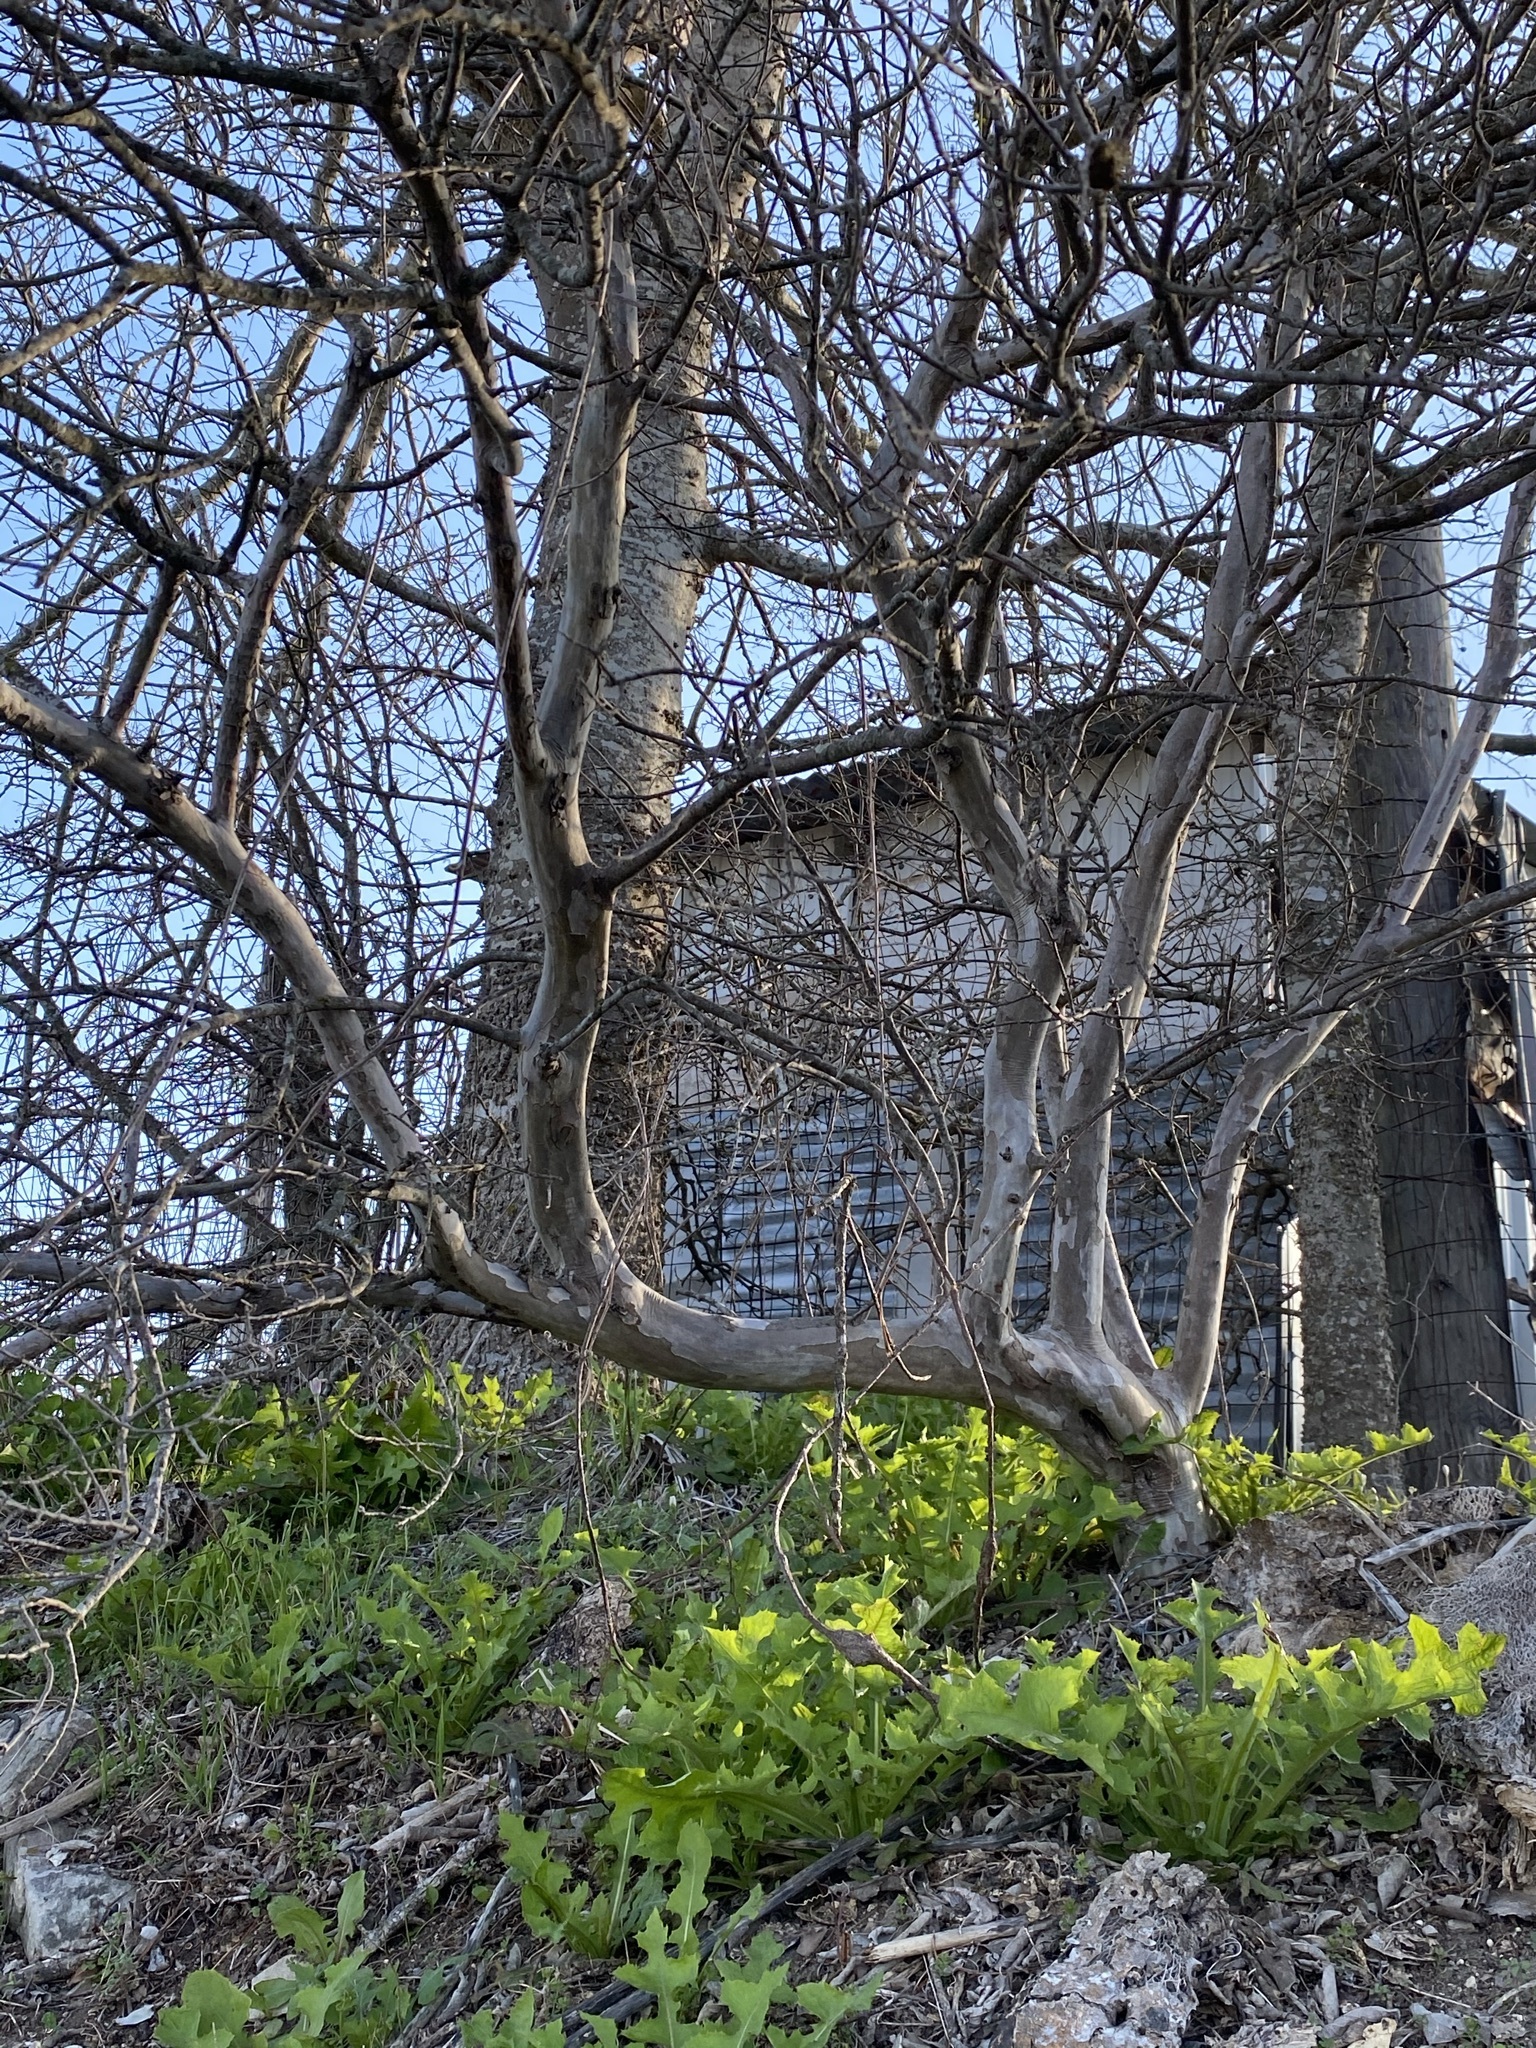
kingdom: Plantae
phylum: Tracheophyta
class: Magnoliopsida
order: Ericales
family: Ebenaceae
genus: Diospyros
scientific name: Diospyros texana
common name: Texas persimmon
